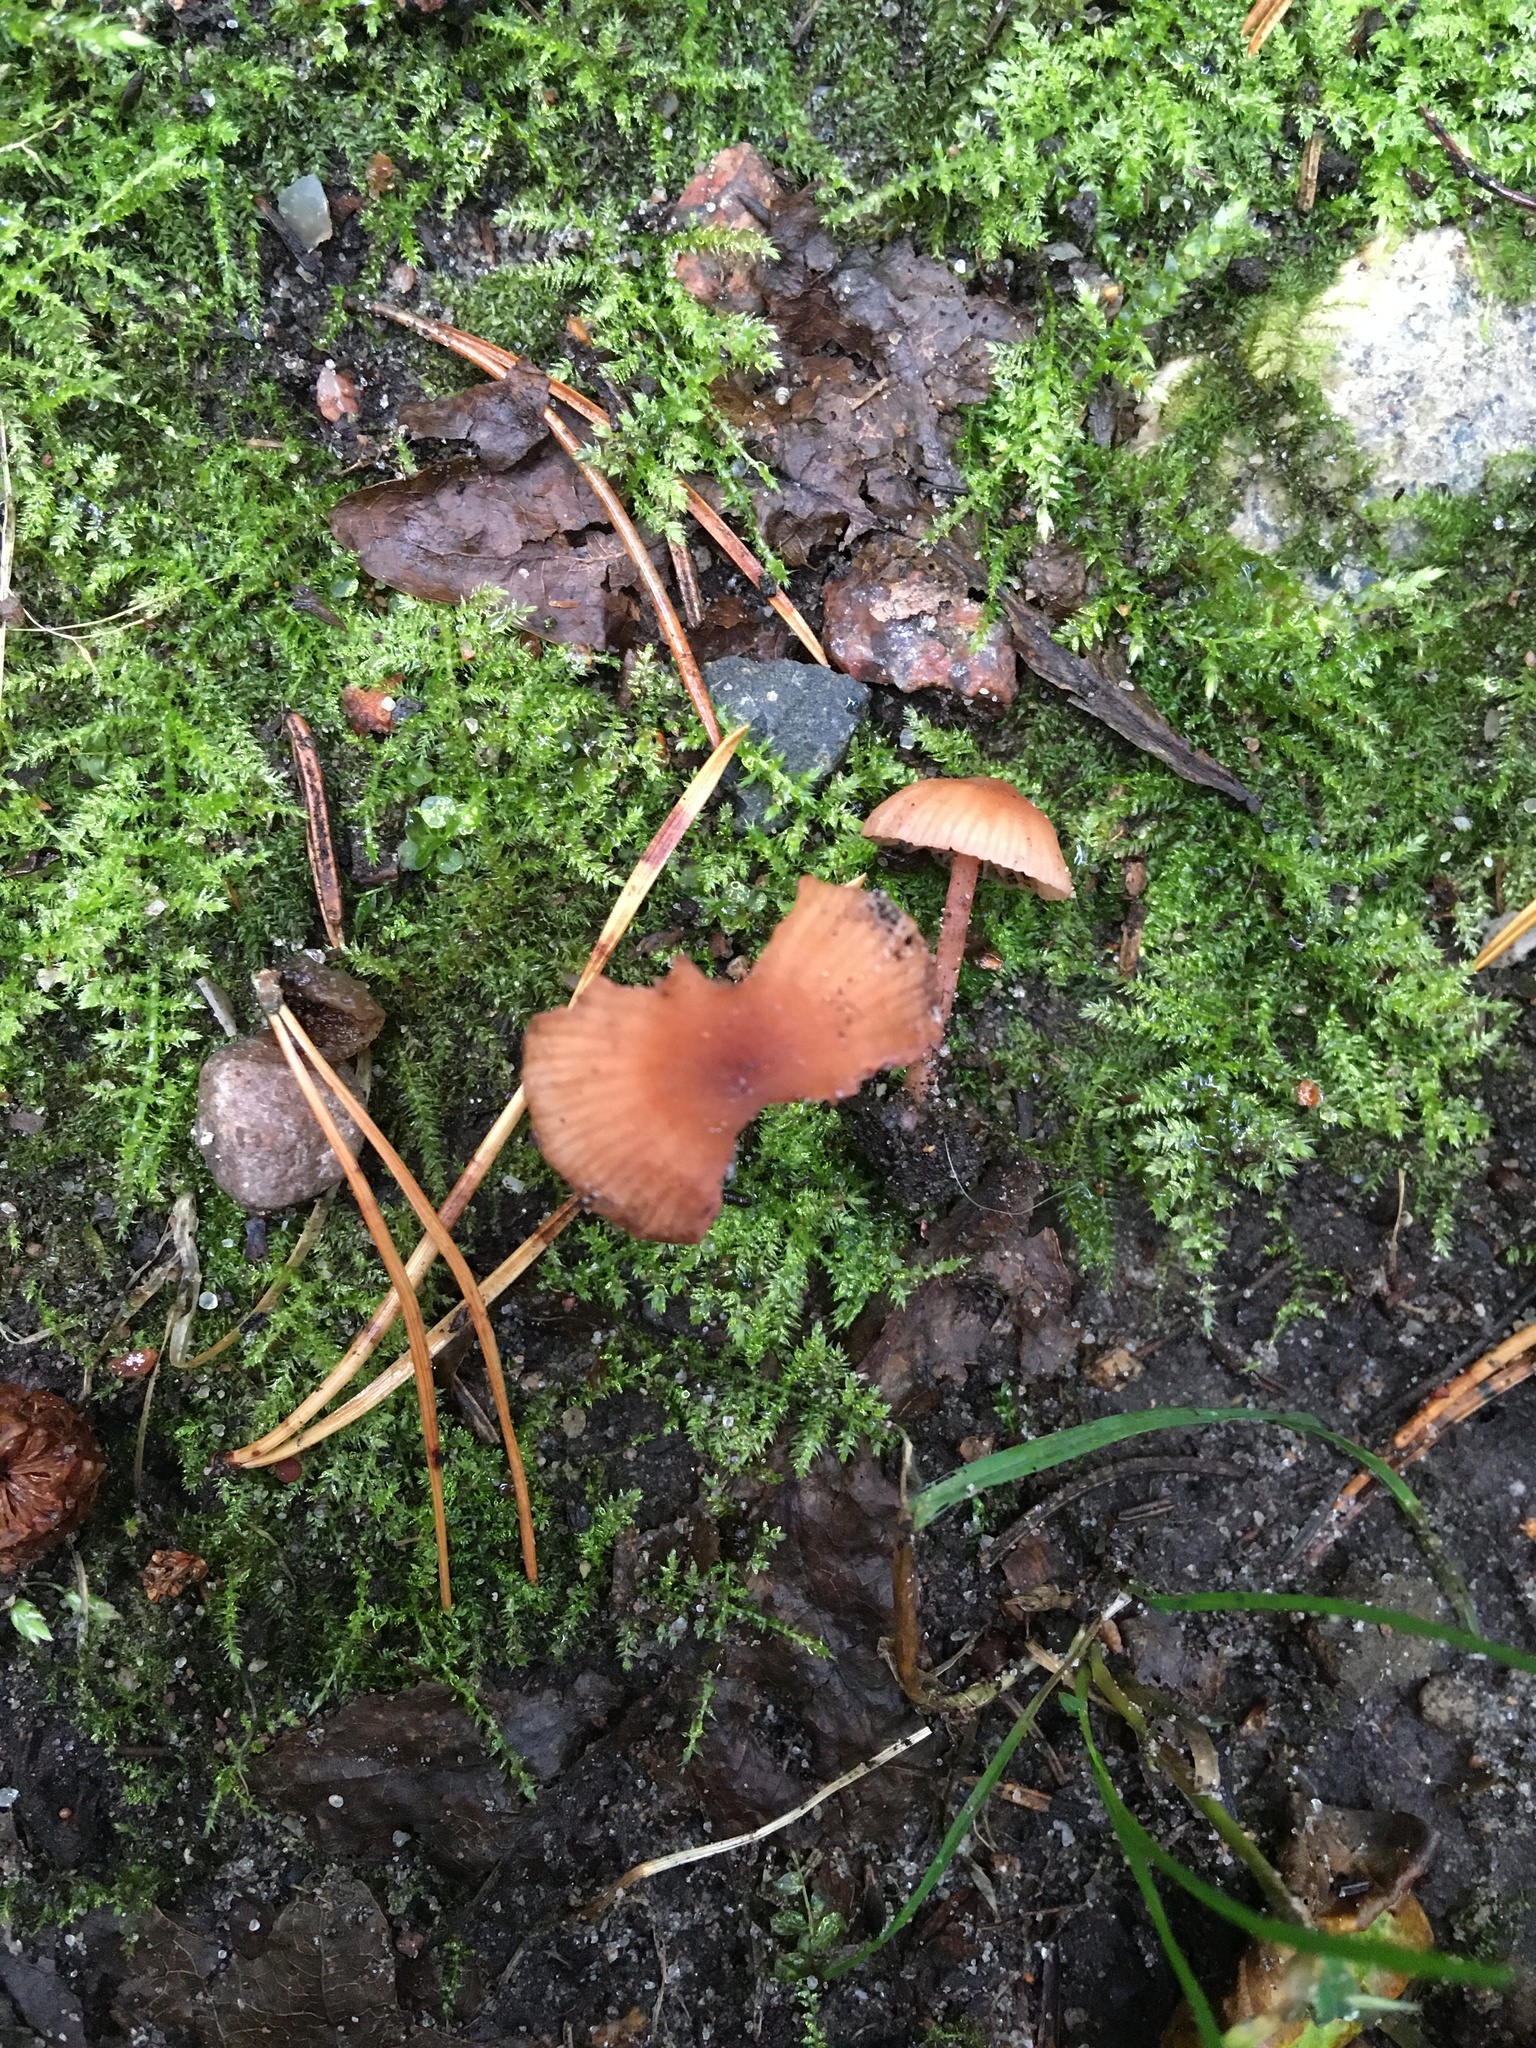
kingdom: Fungi
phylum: Basidiomycota
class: Agaricomycetes
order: Agaricales
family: Hydnangiaceae
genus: Laccaria
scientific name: Laccaria bicolor
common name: Bicoloured deceiver
